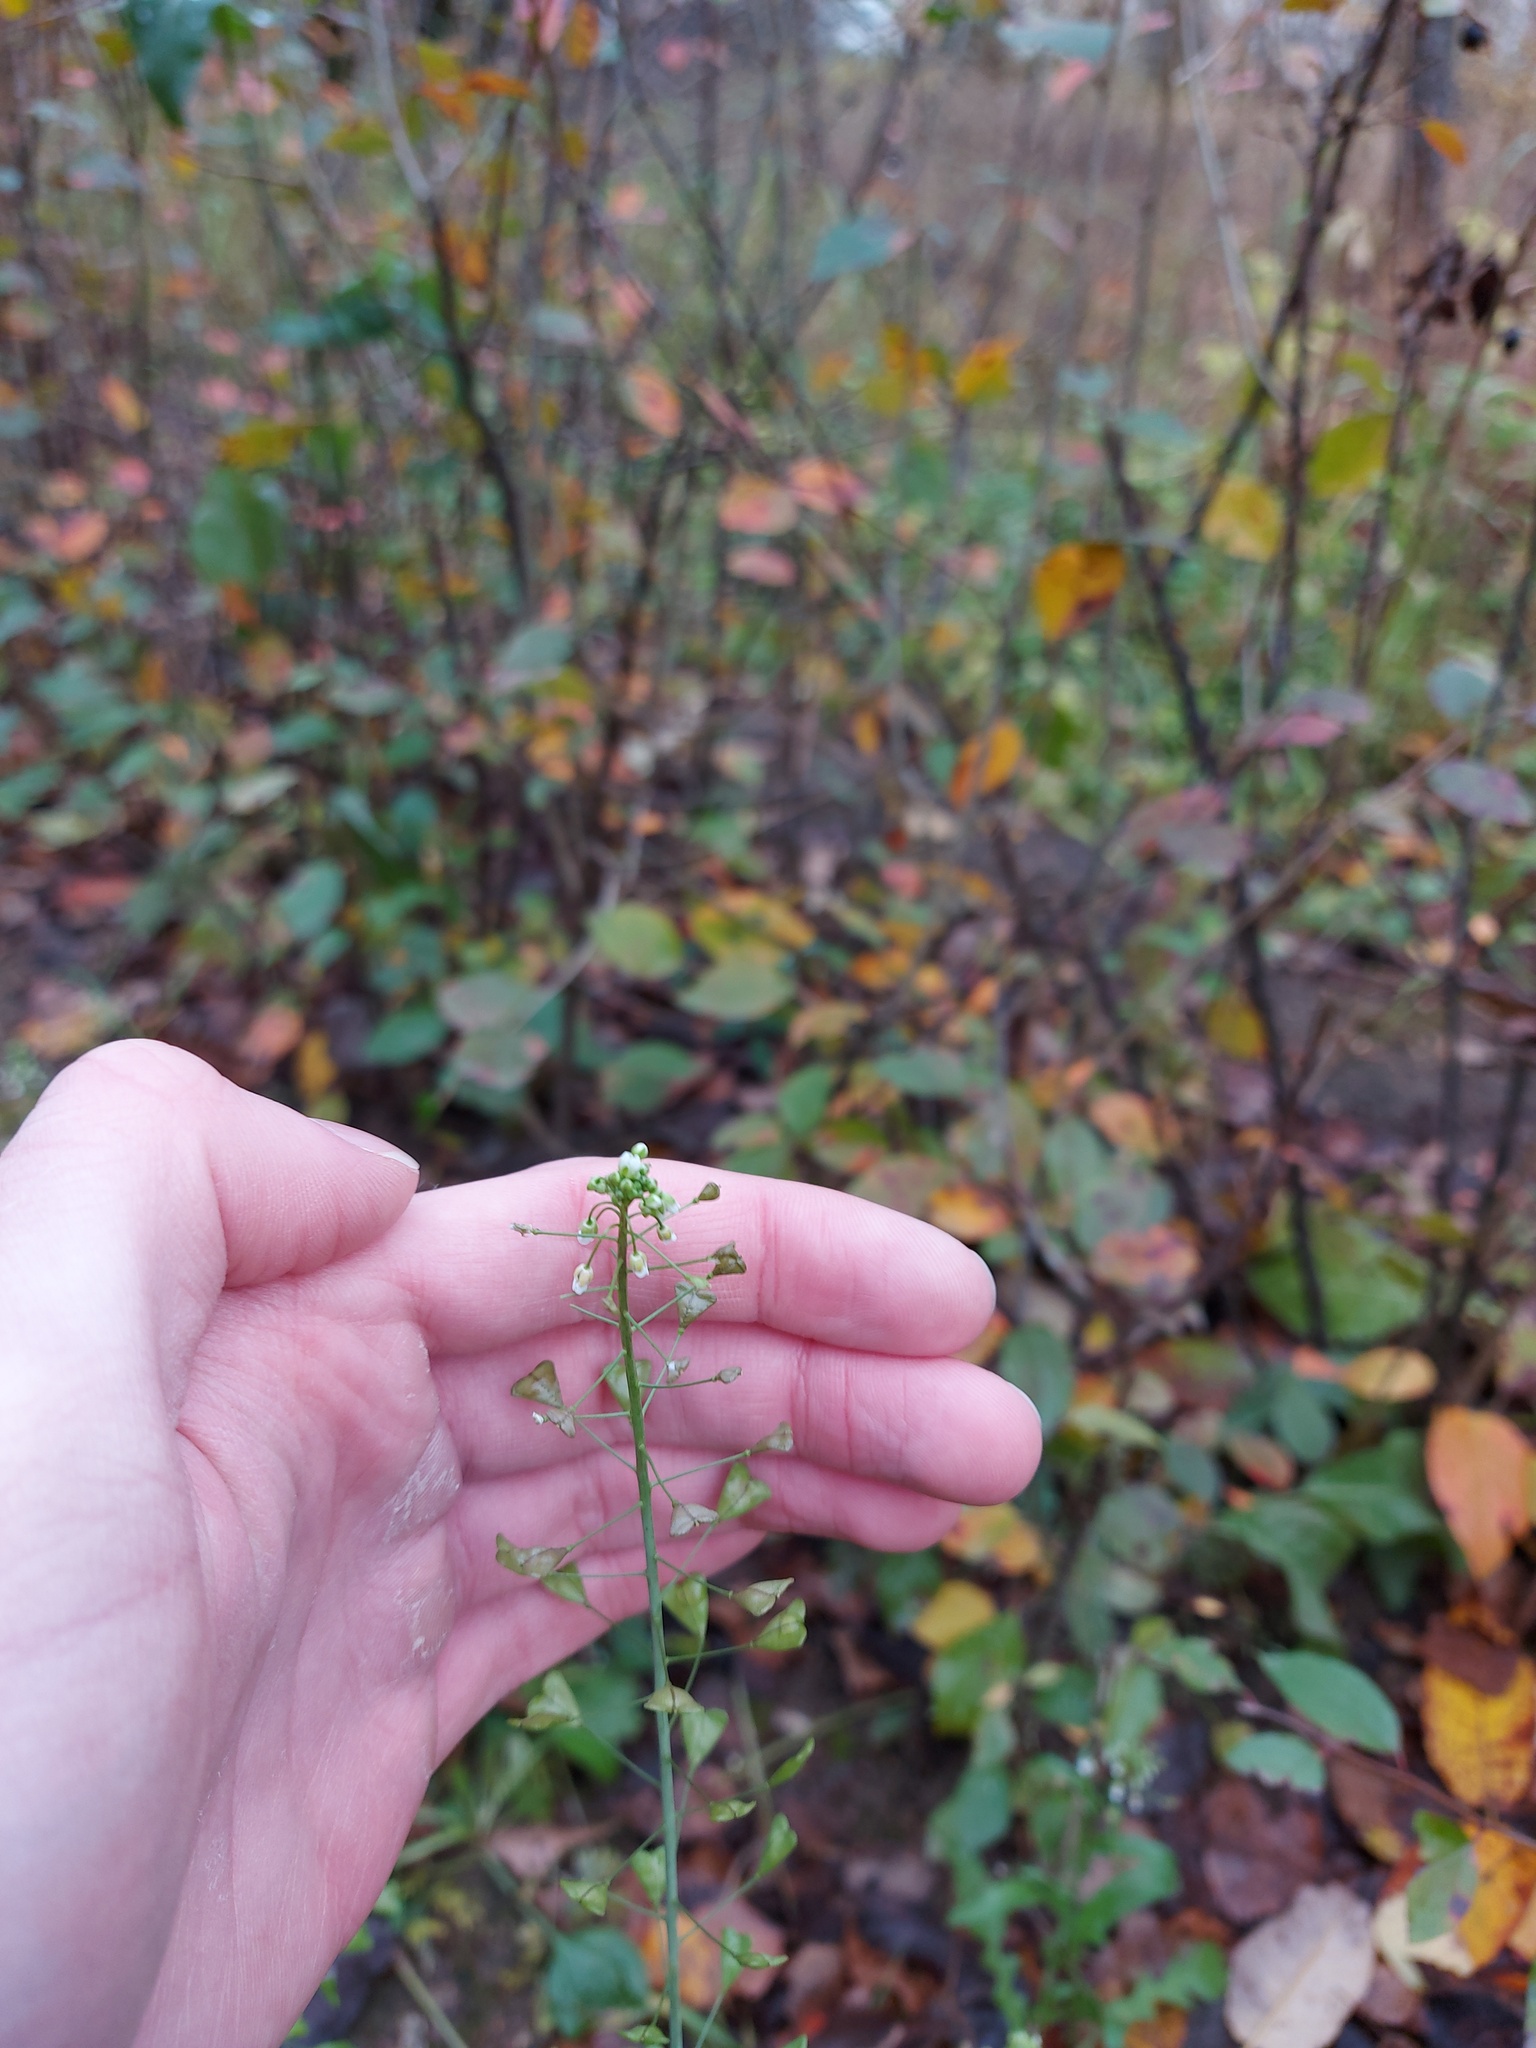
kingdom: Plantae
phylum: Tracheophyta
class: Magnoliopsida
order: Brassicales
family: Brassicaceae
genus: Capsella
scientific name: Capsella bursa-pastoris
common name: Shepherd's purse
